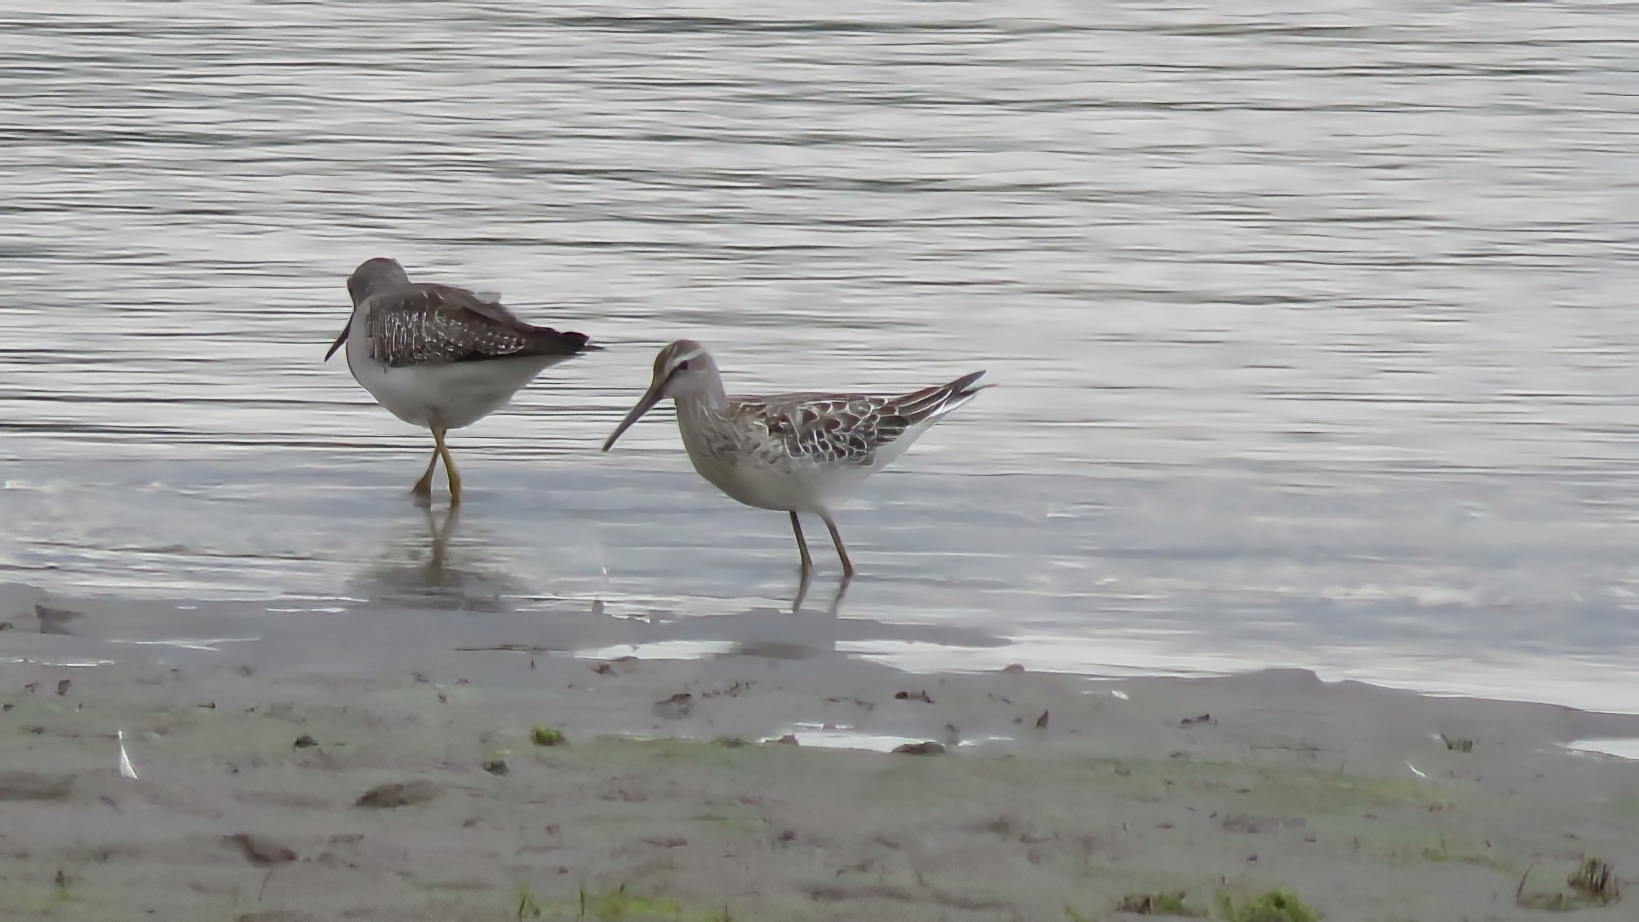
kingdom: Animalia
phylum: Chordata
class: Aves
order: Charadriiformes
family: Scolopacidae
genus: Calidris
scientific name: Calidris himantopus
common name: Stilt sandpiper
